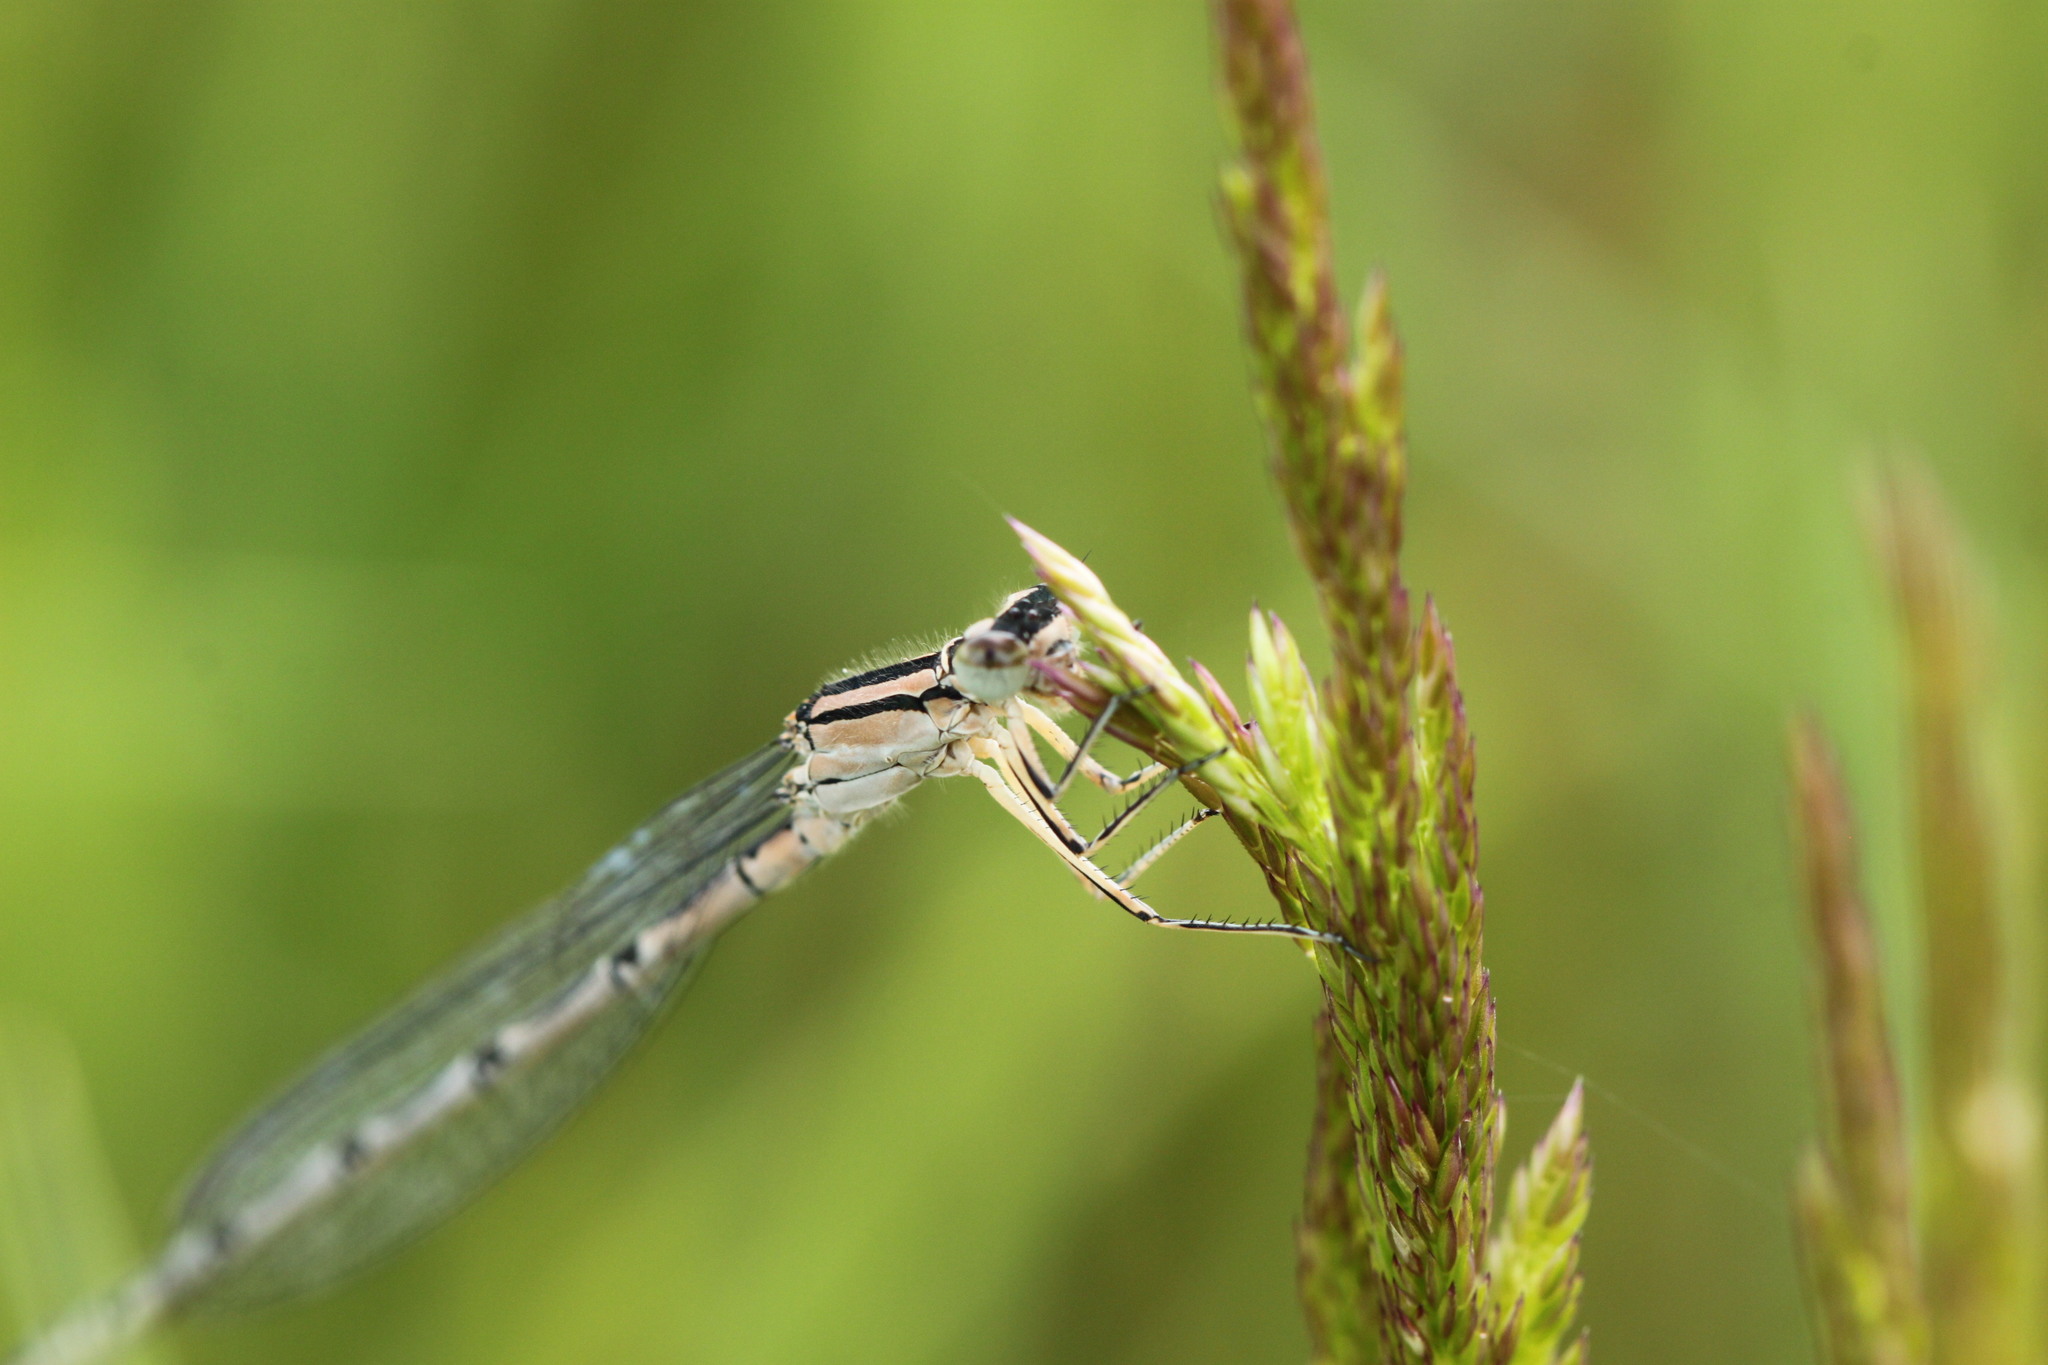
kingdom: Animalia
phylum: Arthropoda
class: Insecta
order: Odonata
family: Coenagrionidae
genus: Enallagma
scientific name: Enallagma cyathigerum
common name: Common blue damselfly
